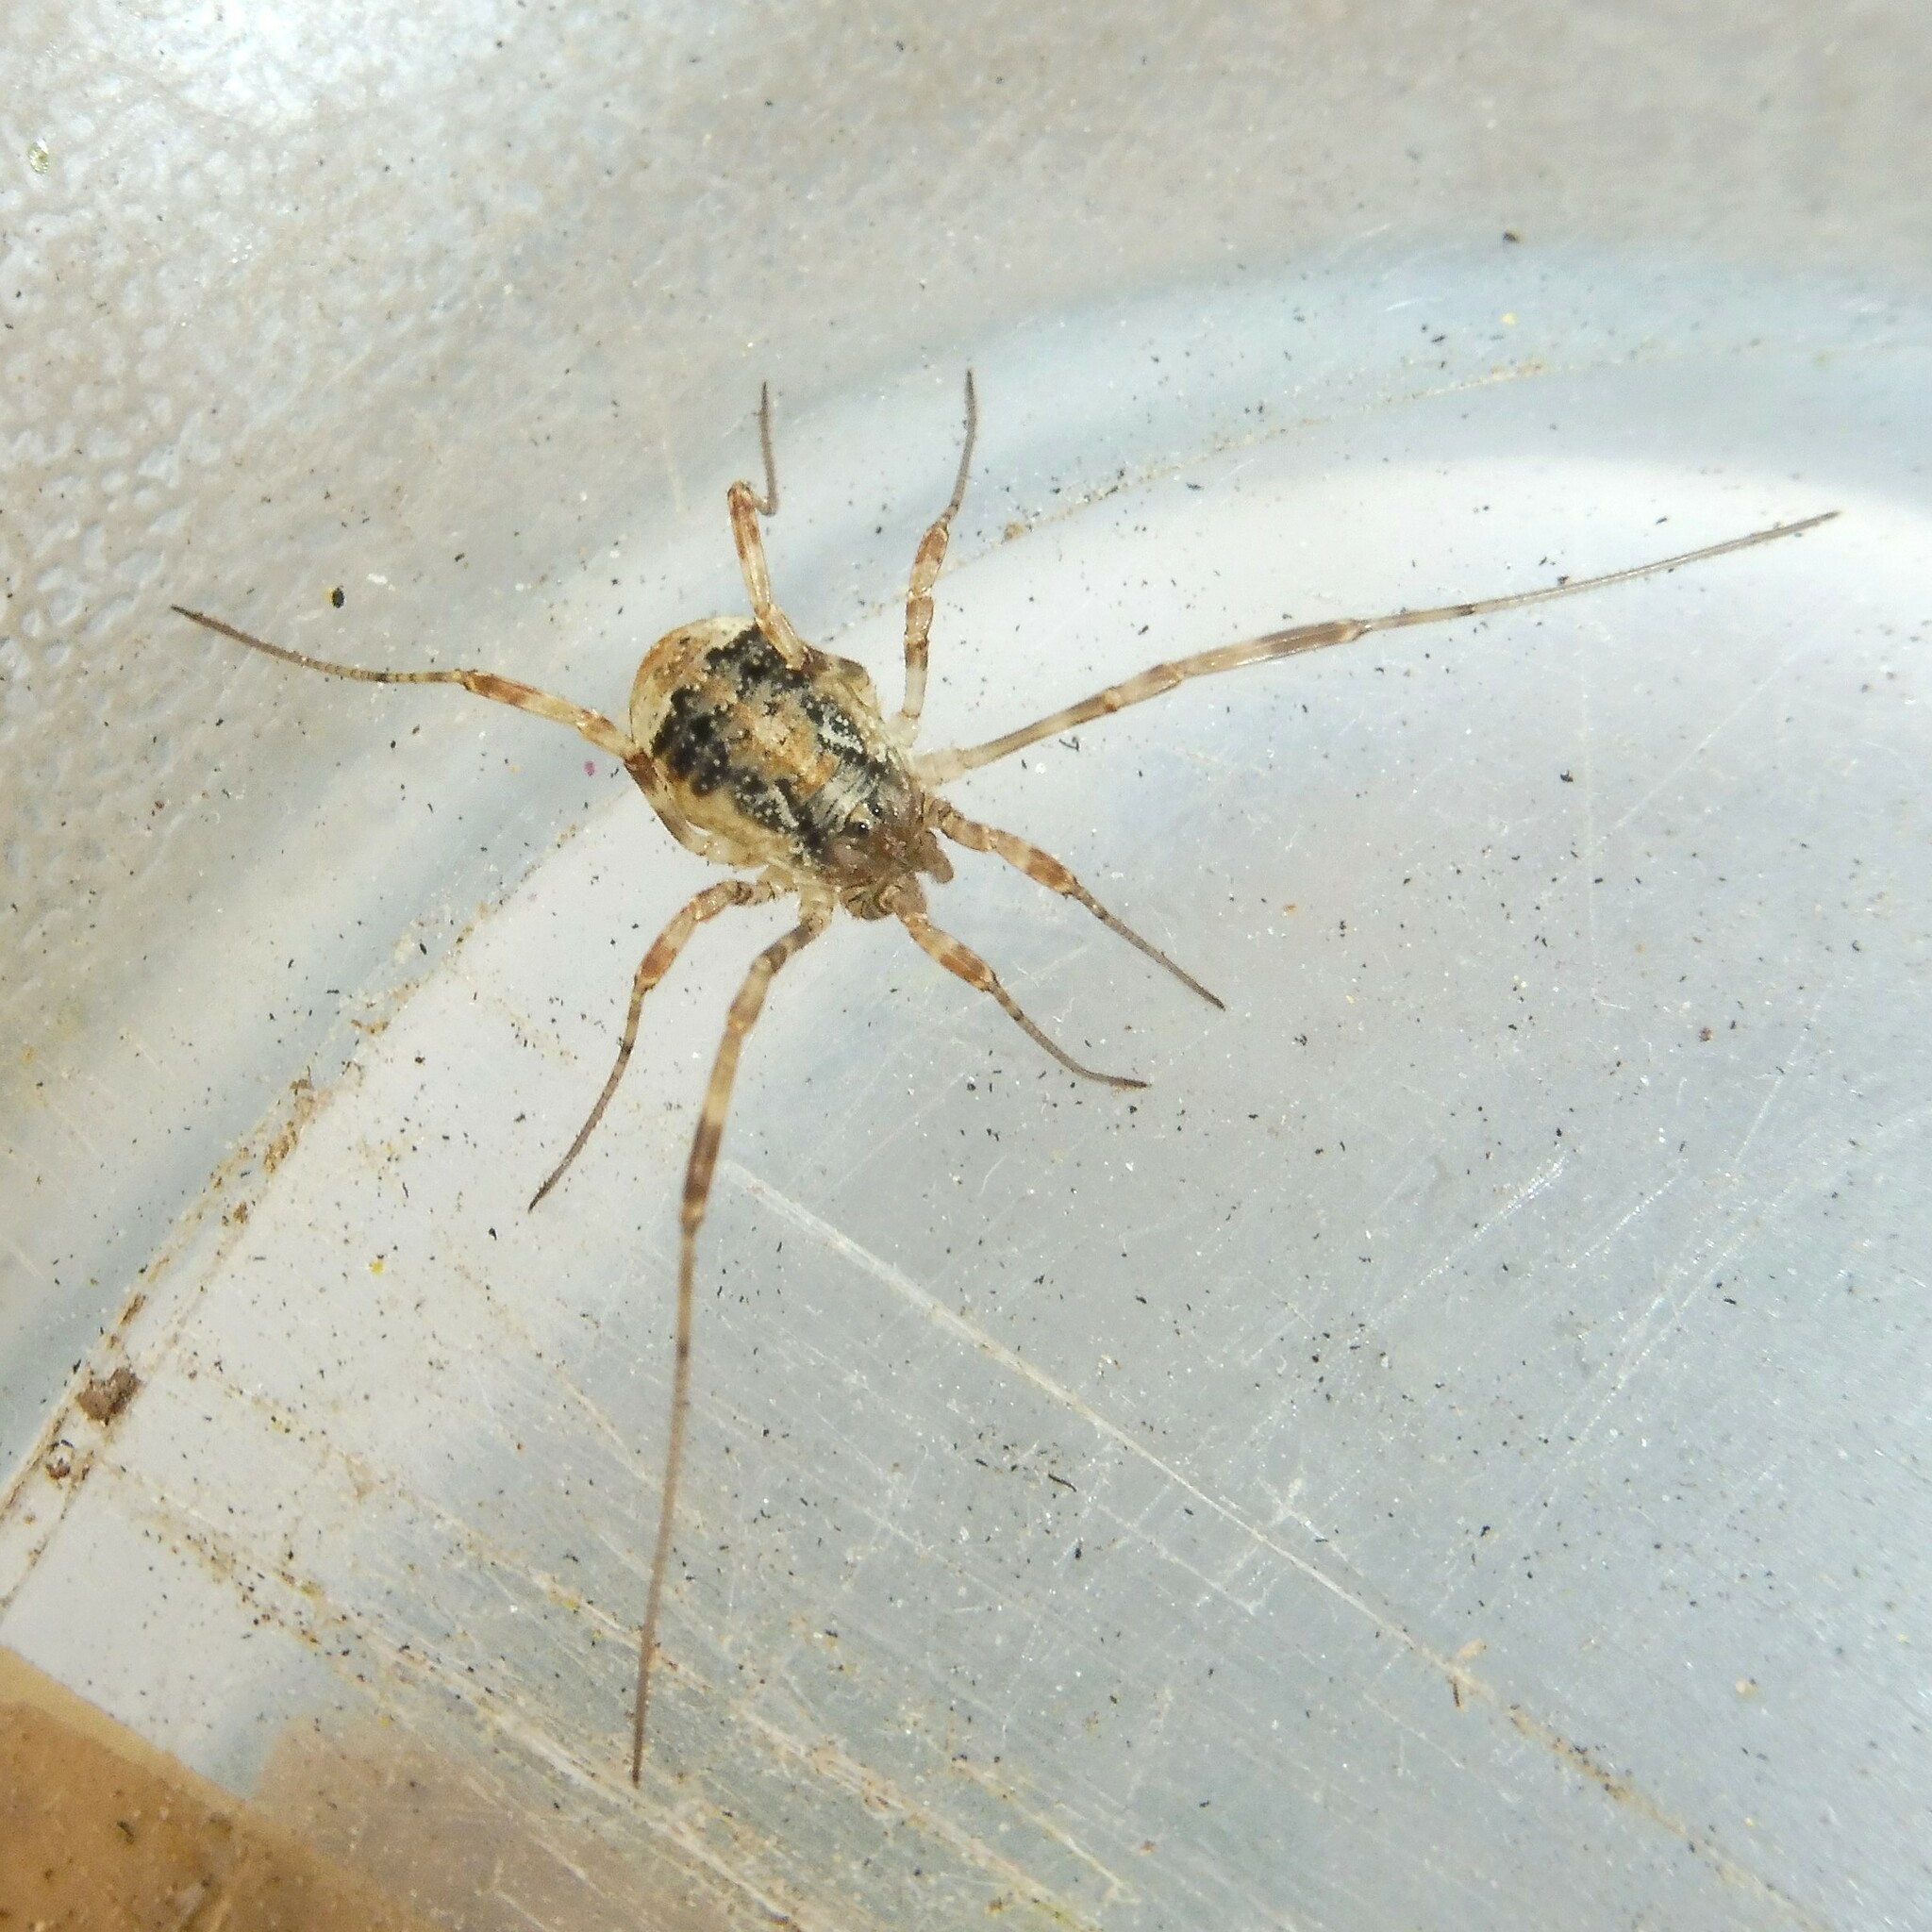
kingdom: Animalia
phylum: Arthropoda
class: Arachnida
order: Opiliones
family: Phalangiidae
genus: Paroligolophus
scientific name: Paroligolophus agrestis
